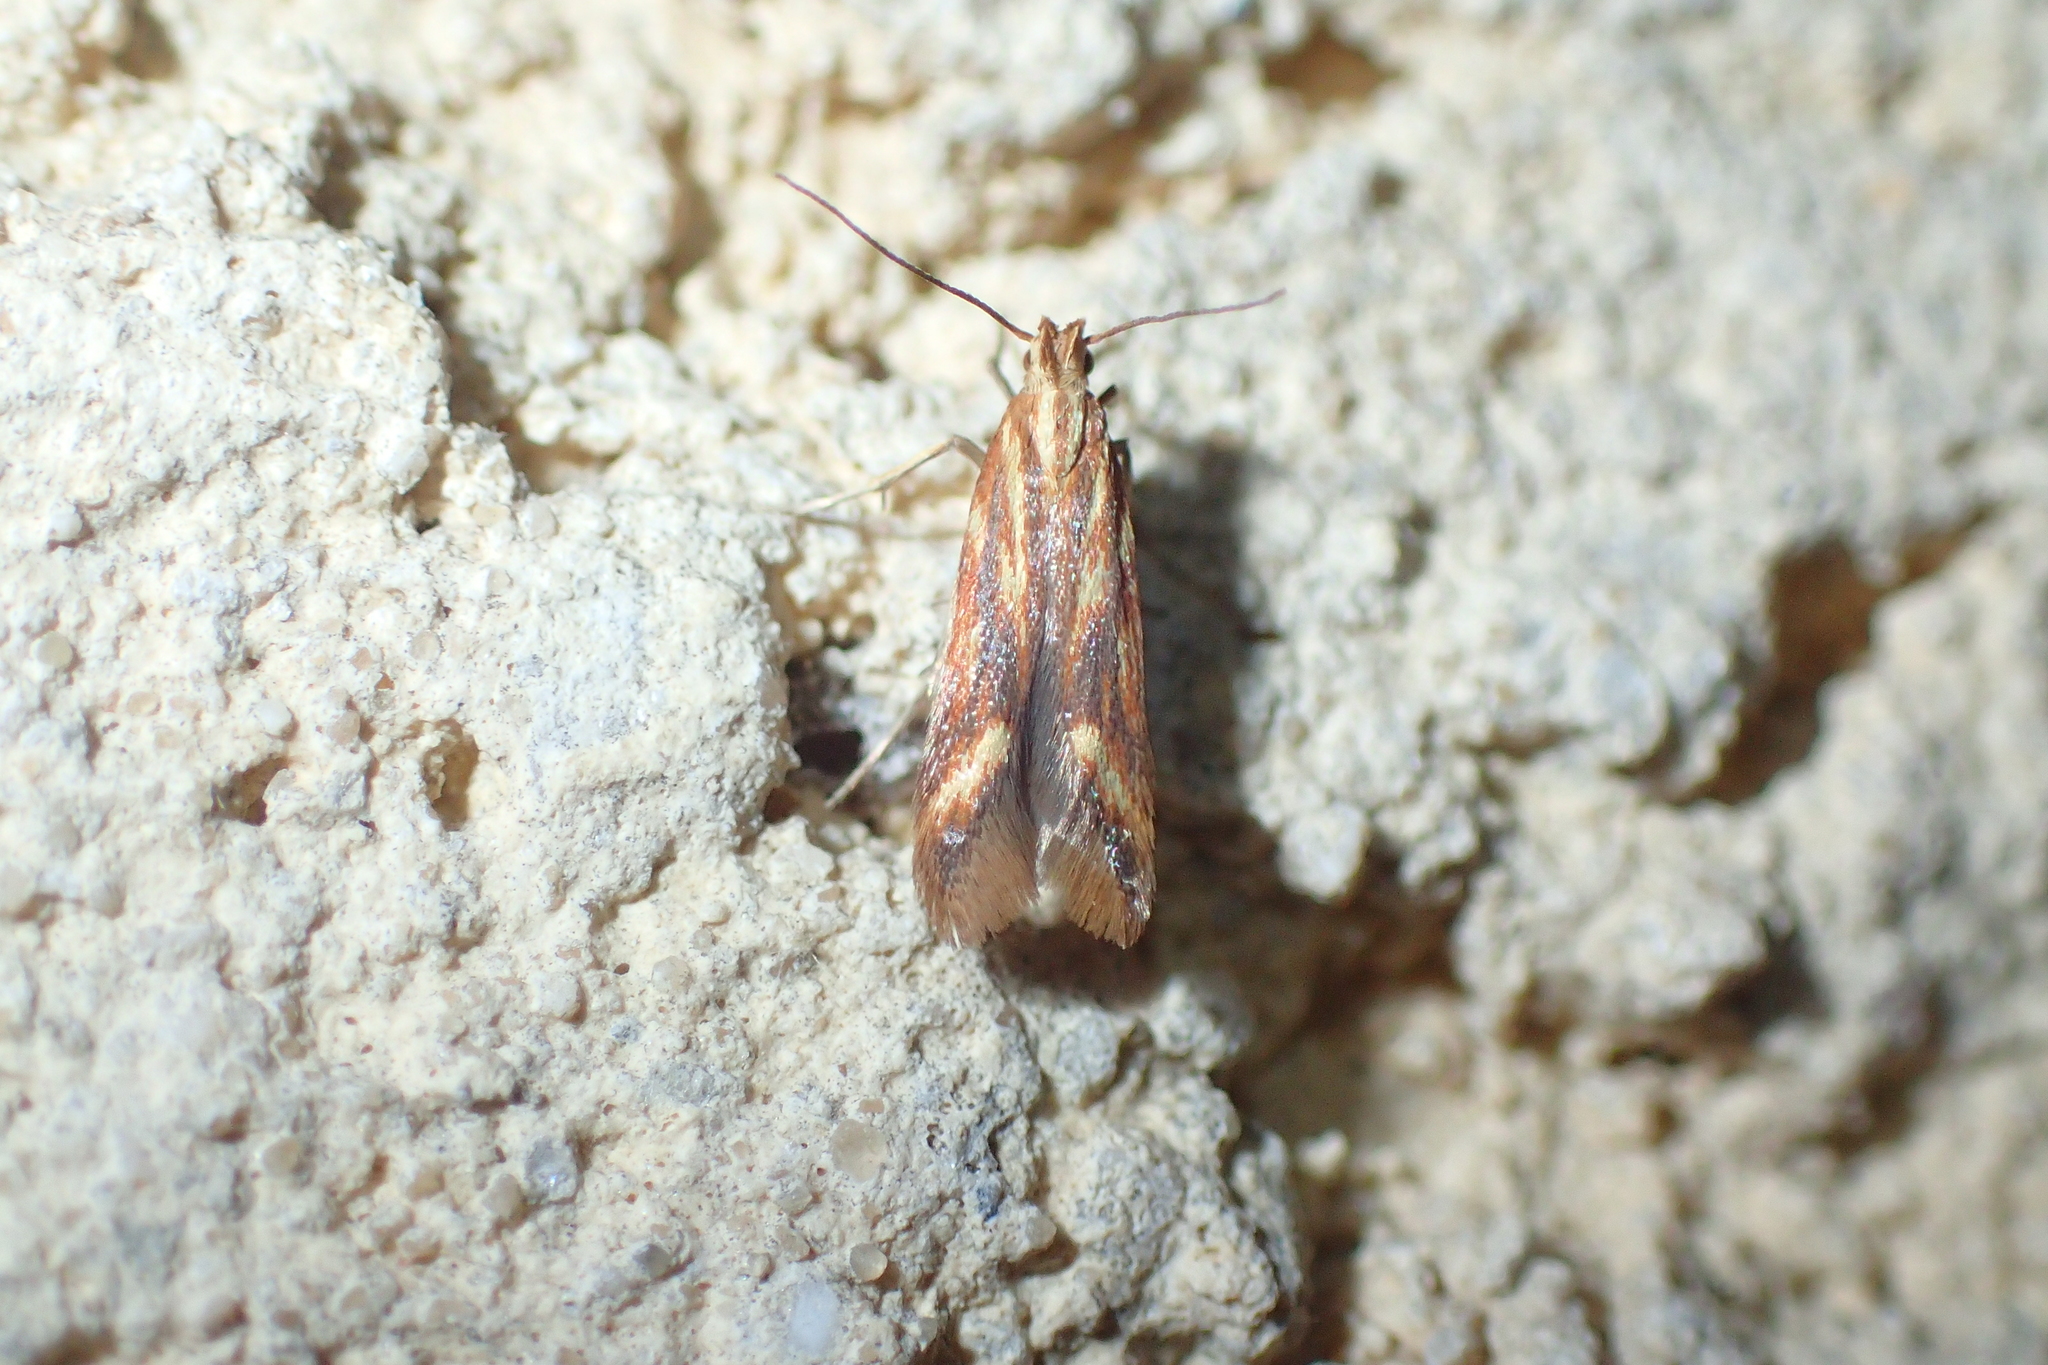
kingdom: Animalia
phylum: Arthropoda
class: Insecta
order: Lepidoptera
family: Gelechiidae
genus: Metzneria
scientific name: Metzneria aprilella
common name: Brilliant neb
